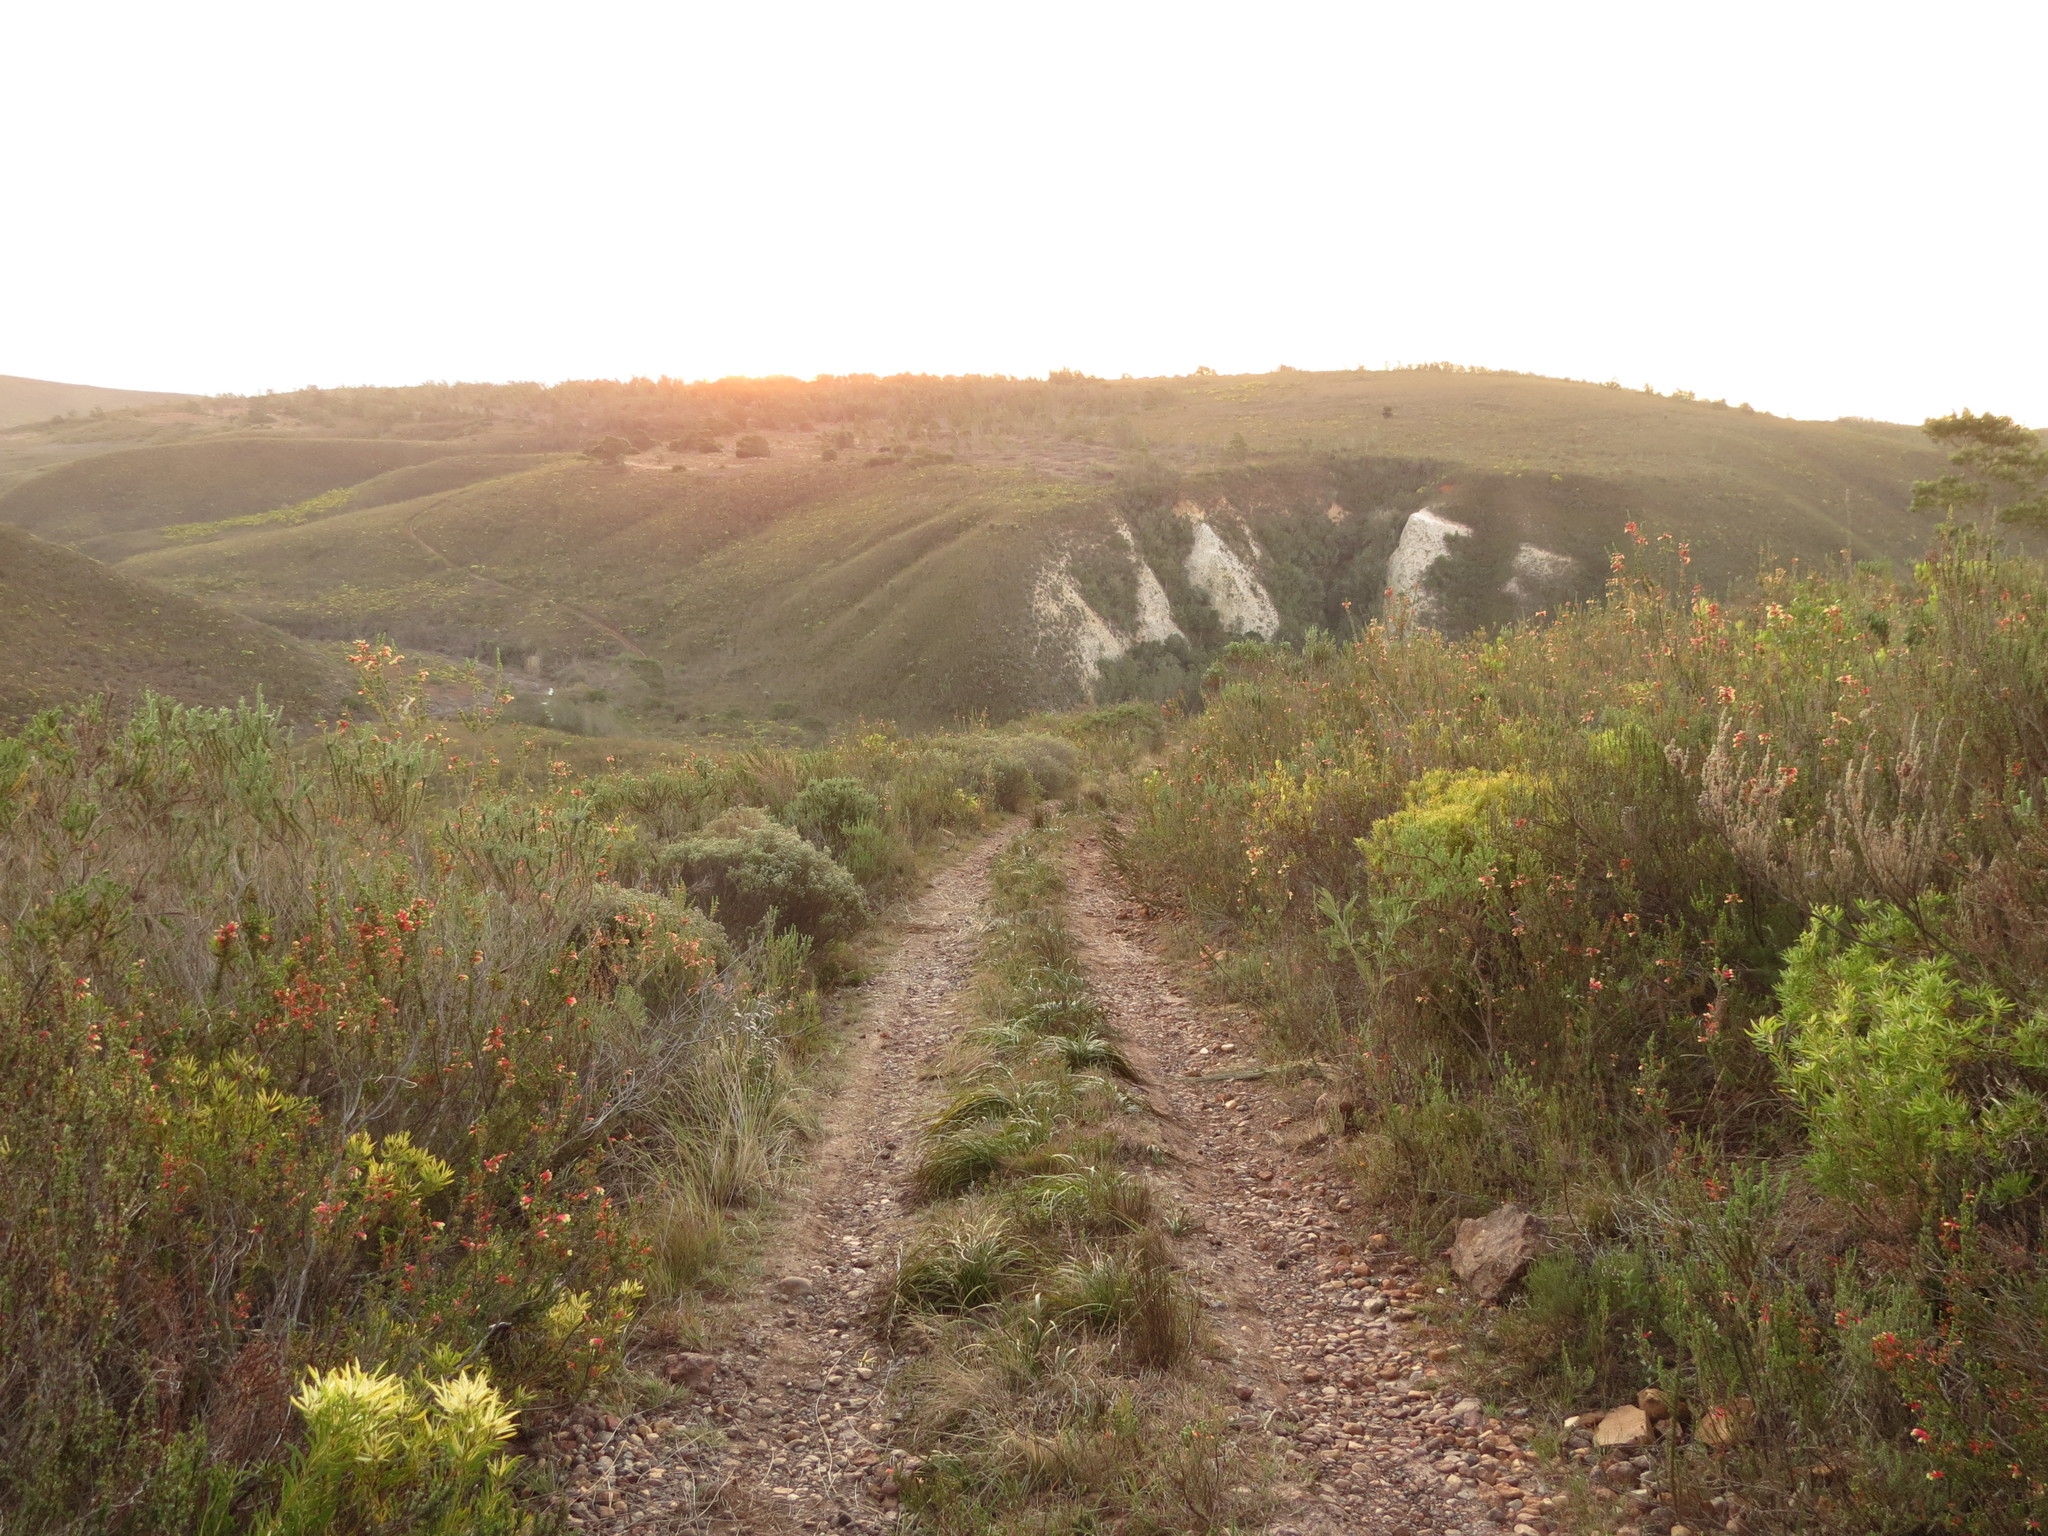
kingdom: Plantae
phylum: Tracheophyta
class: Magnoliopsida
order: Proteales
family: Proteaceae
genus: Leucadendron
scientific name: Leucadendron salignum
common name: Common sunshine conebush
